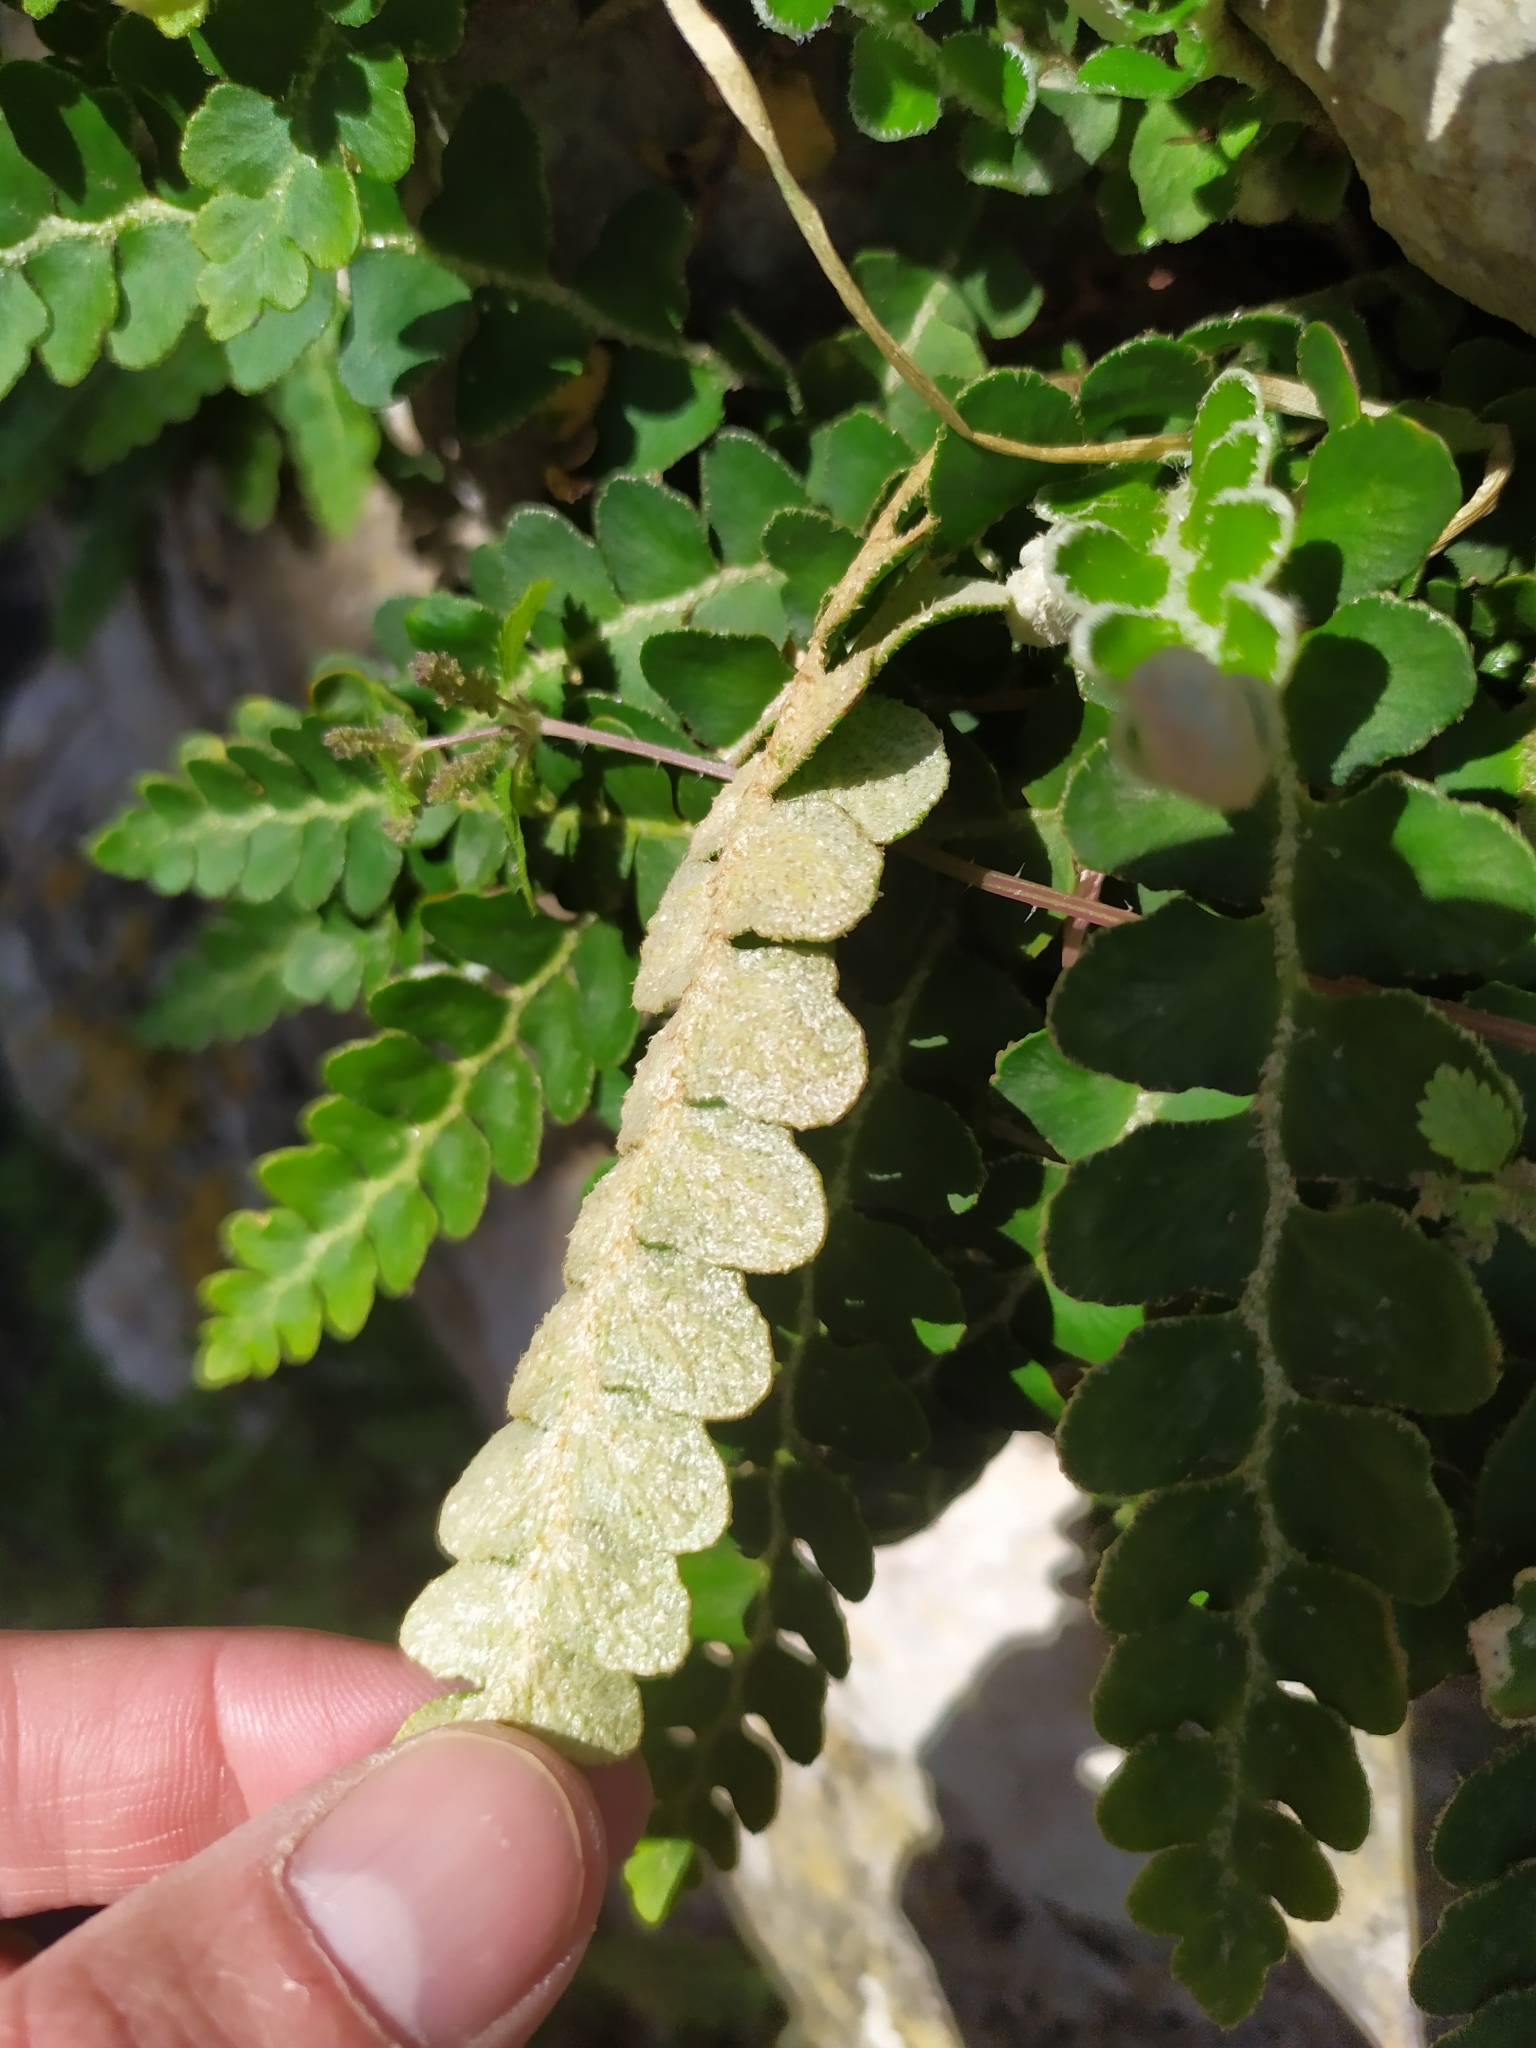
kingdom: Plantae
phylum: Tracheophyta
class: Polypodiopsida
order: Polypodiales
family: Aspleniaceae
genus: Asplenium
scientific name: Asplenium ceterach
